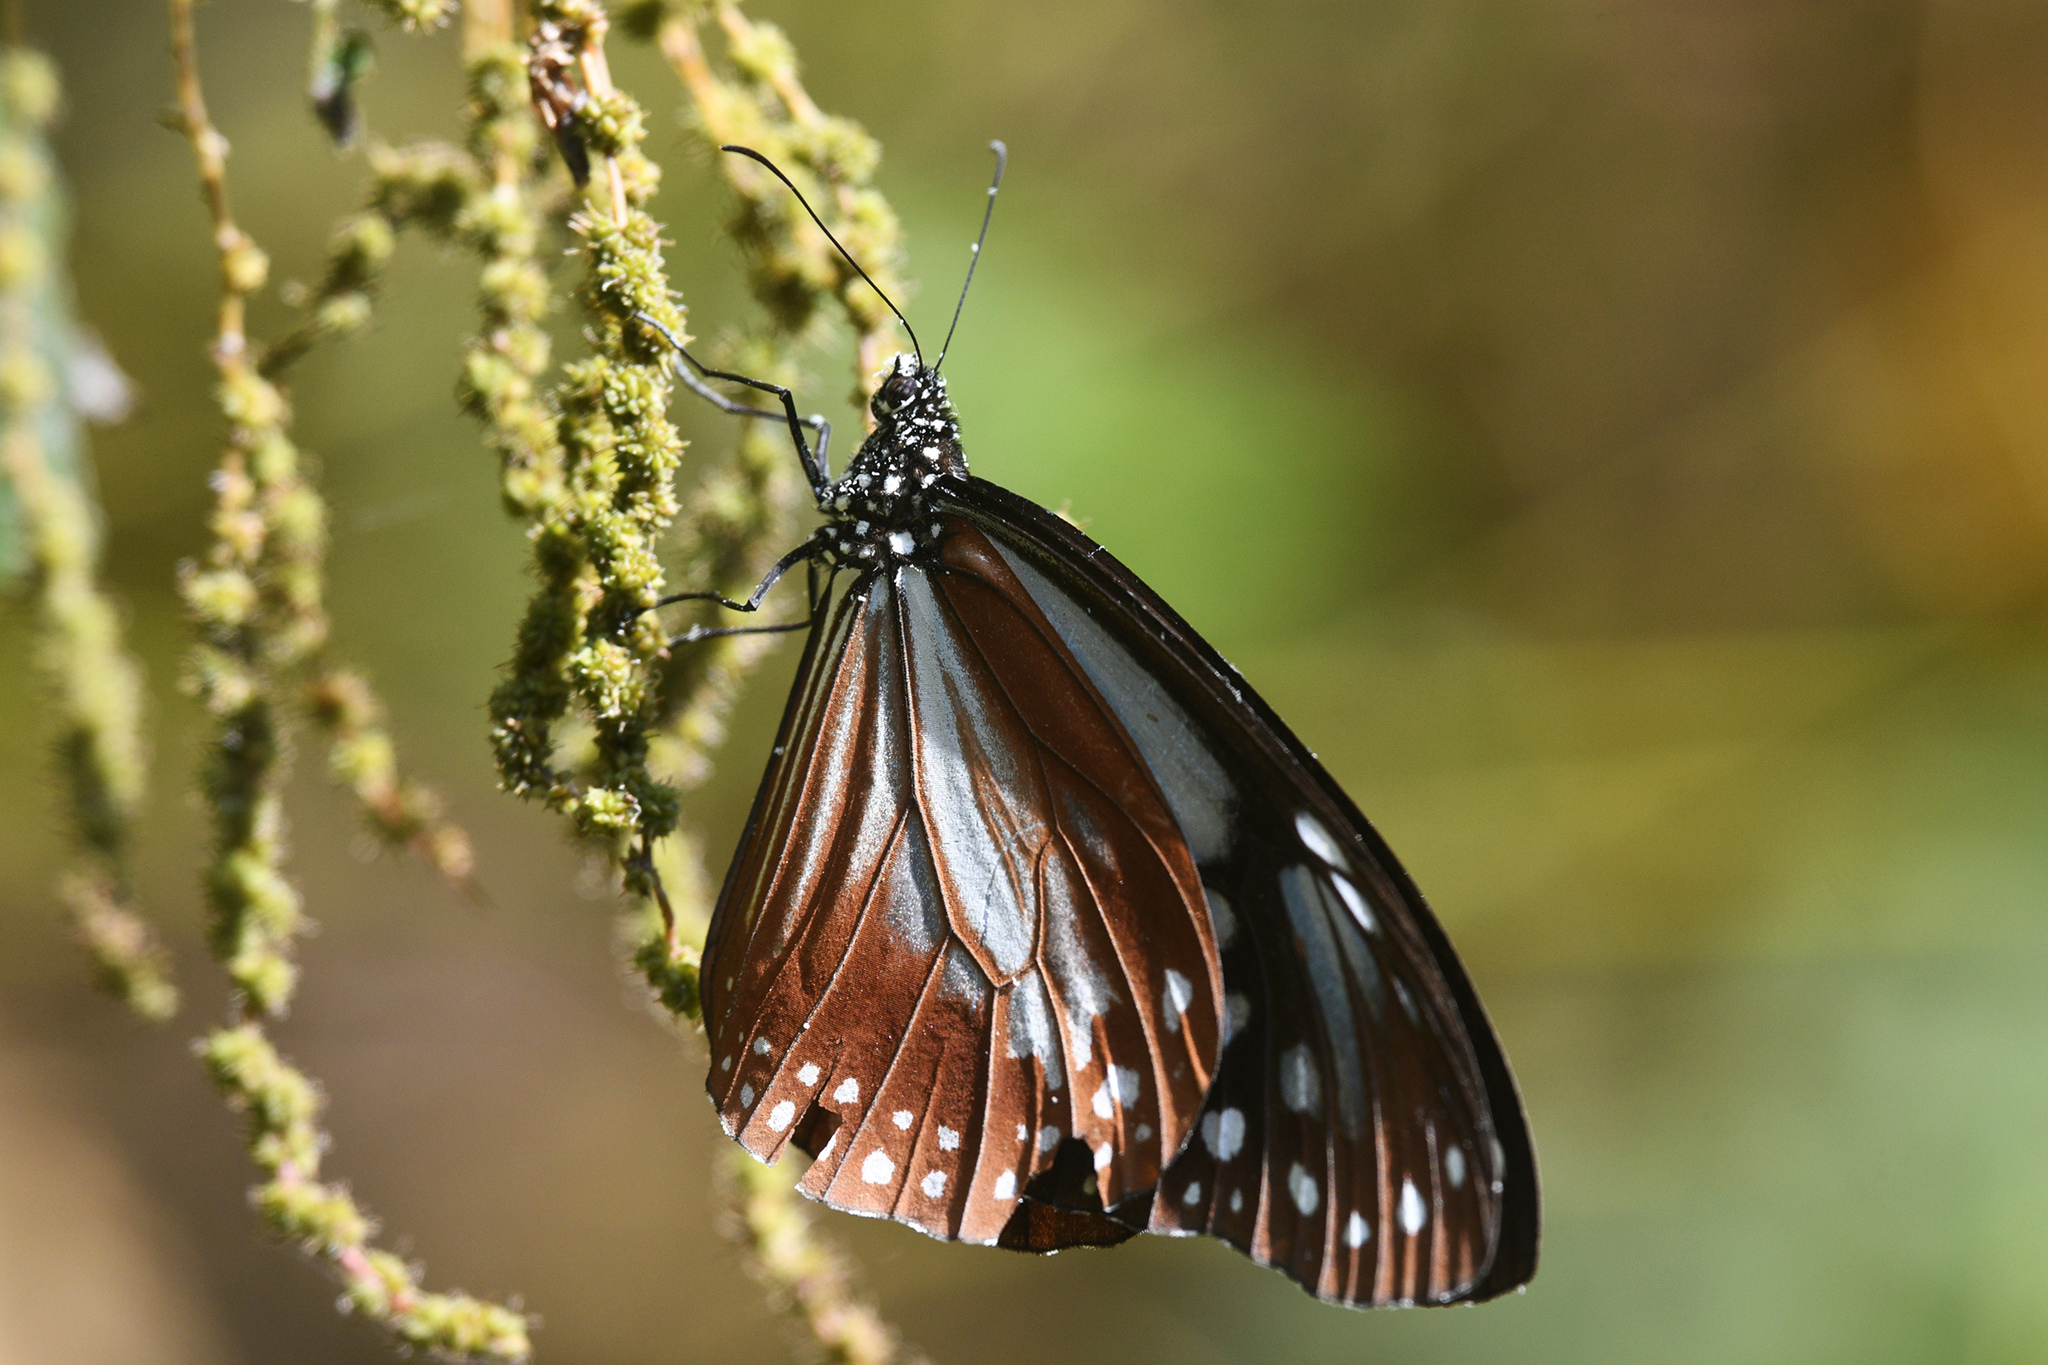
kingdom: Animalia
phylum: Arthropoda
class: Insecta
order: Lepidoptera
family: Nymphalidae
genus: Parantica
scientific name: Parantica sita
